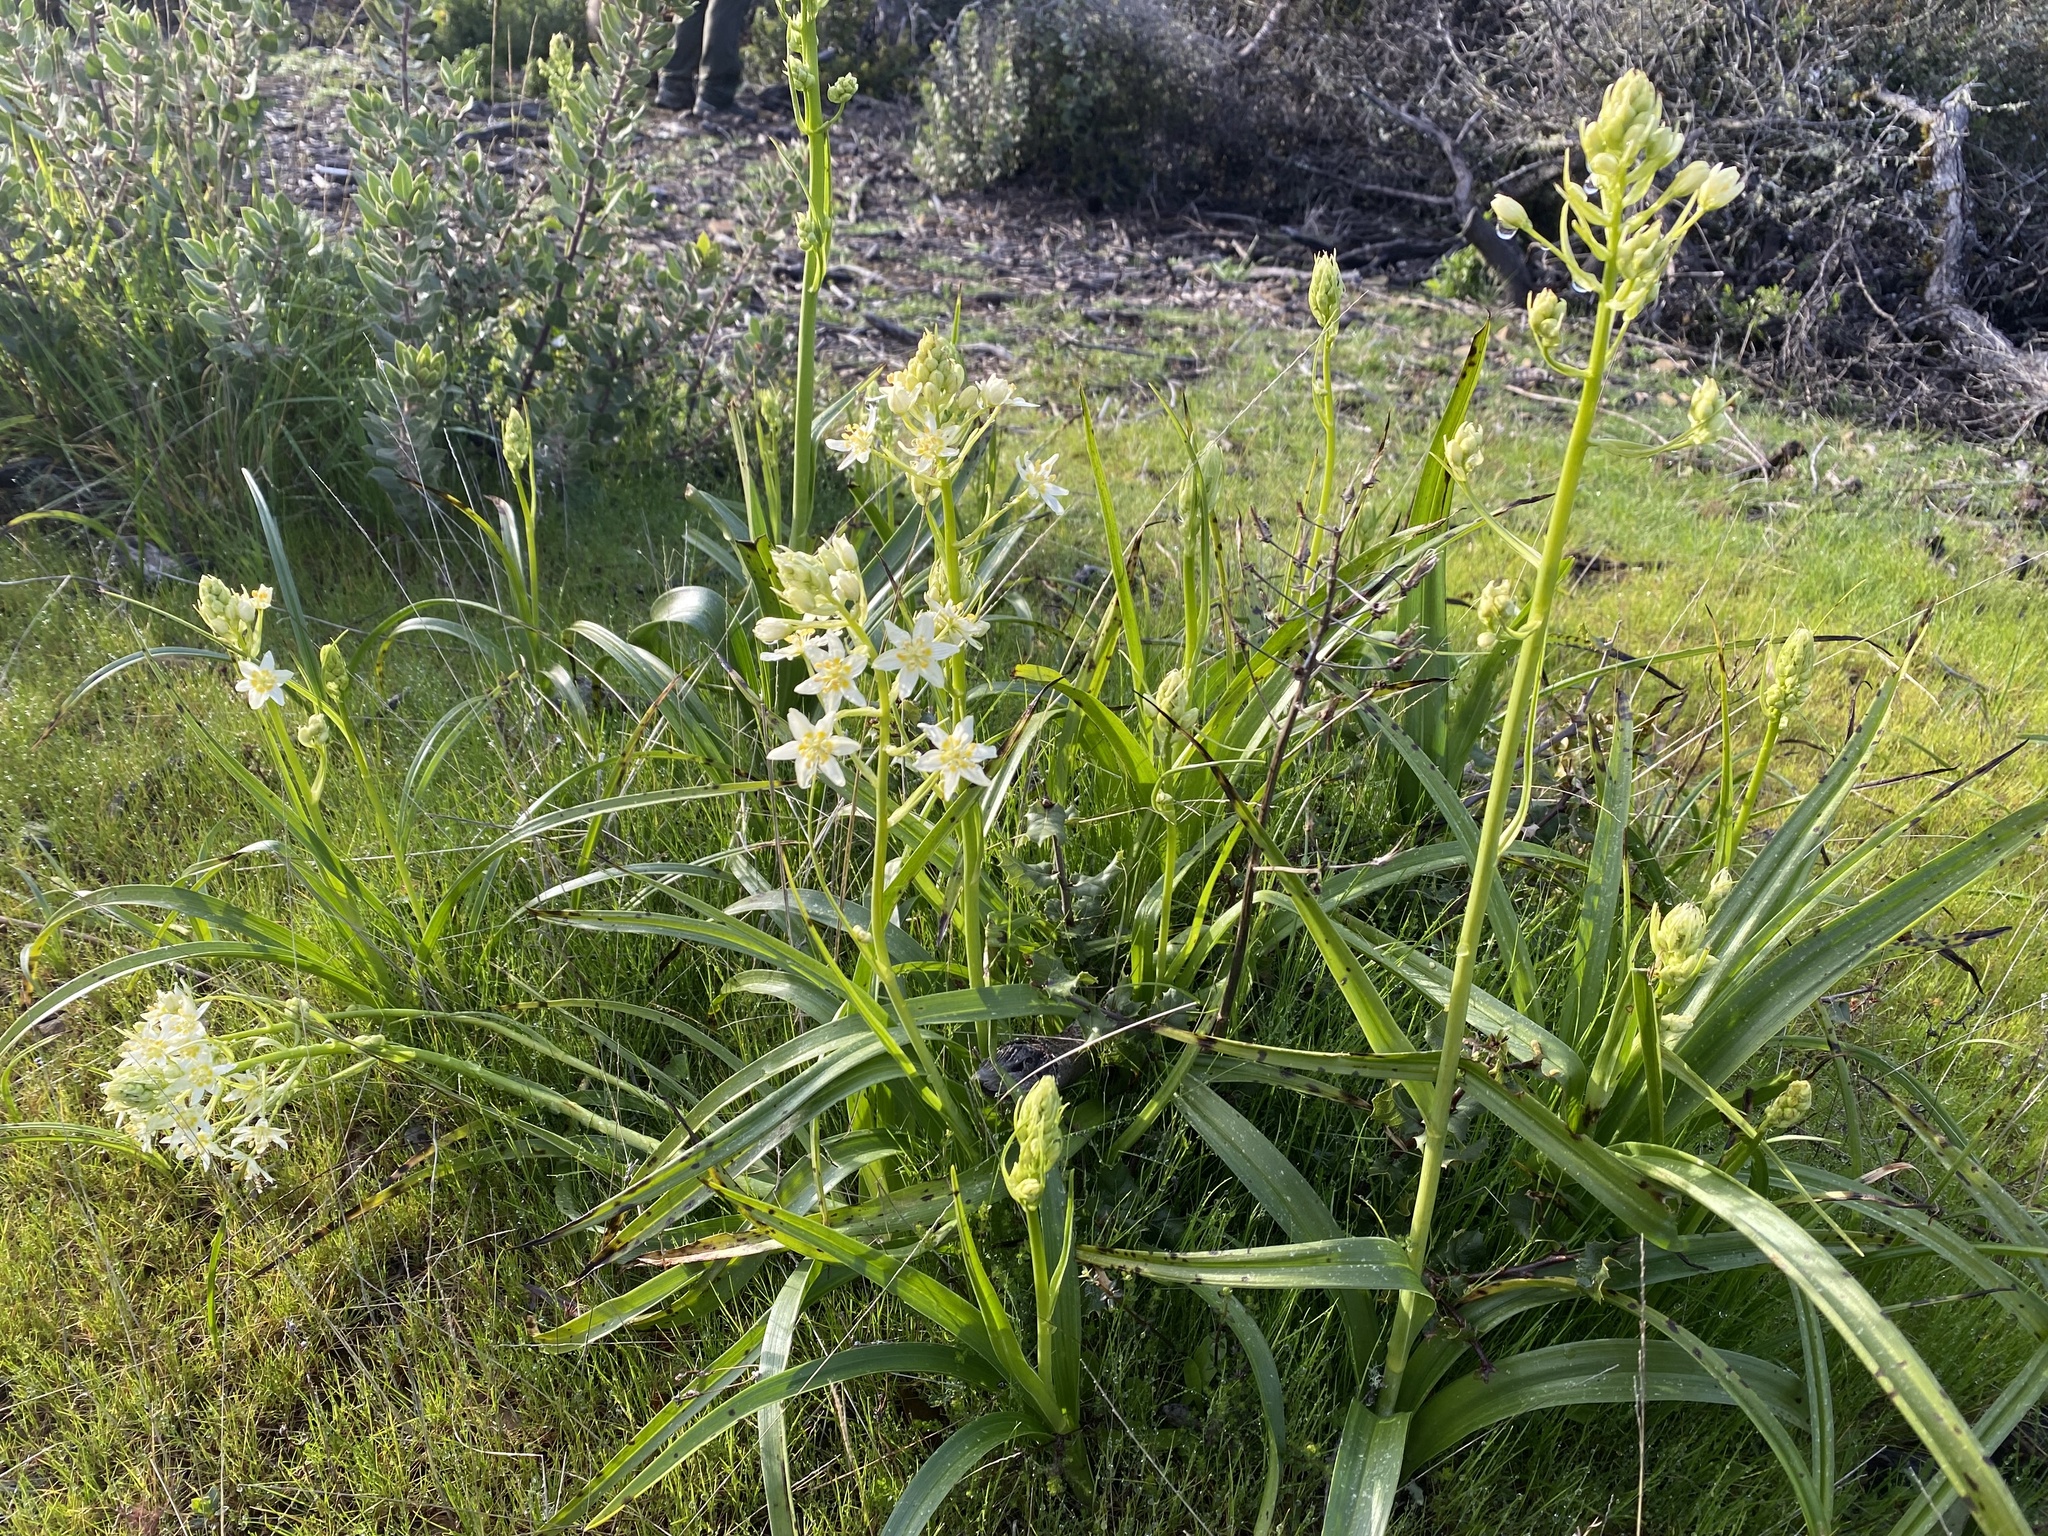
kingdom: Plantae
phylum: Tracheophyta
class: Liliopsida
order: Liliales
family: Melanthiaceae
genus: Toxicoscordion
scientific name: Toxicoscordion fremontii
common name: Fremont's death camas
